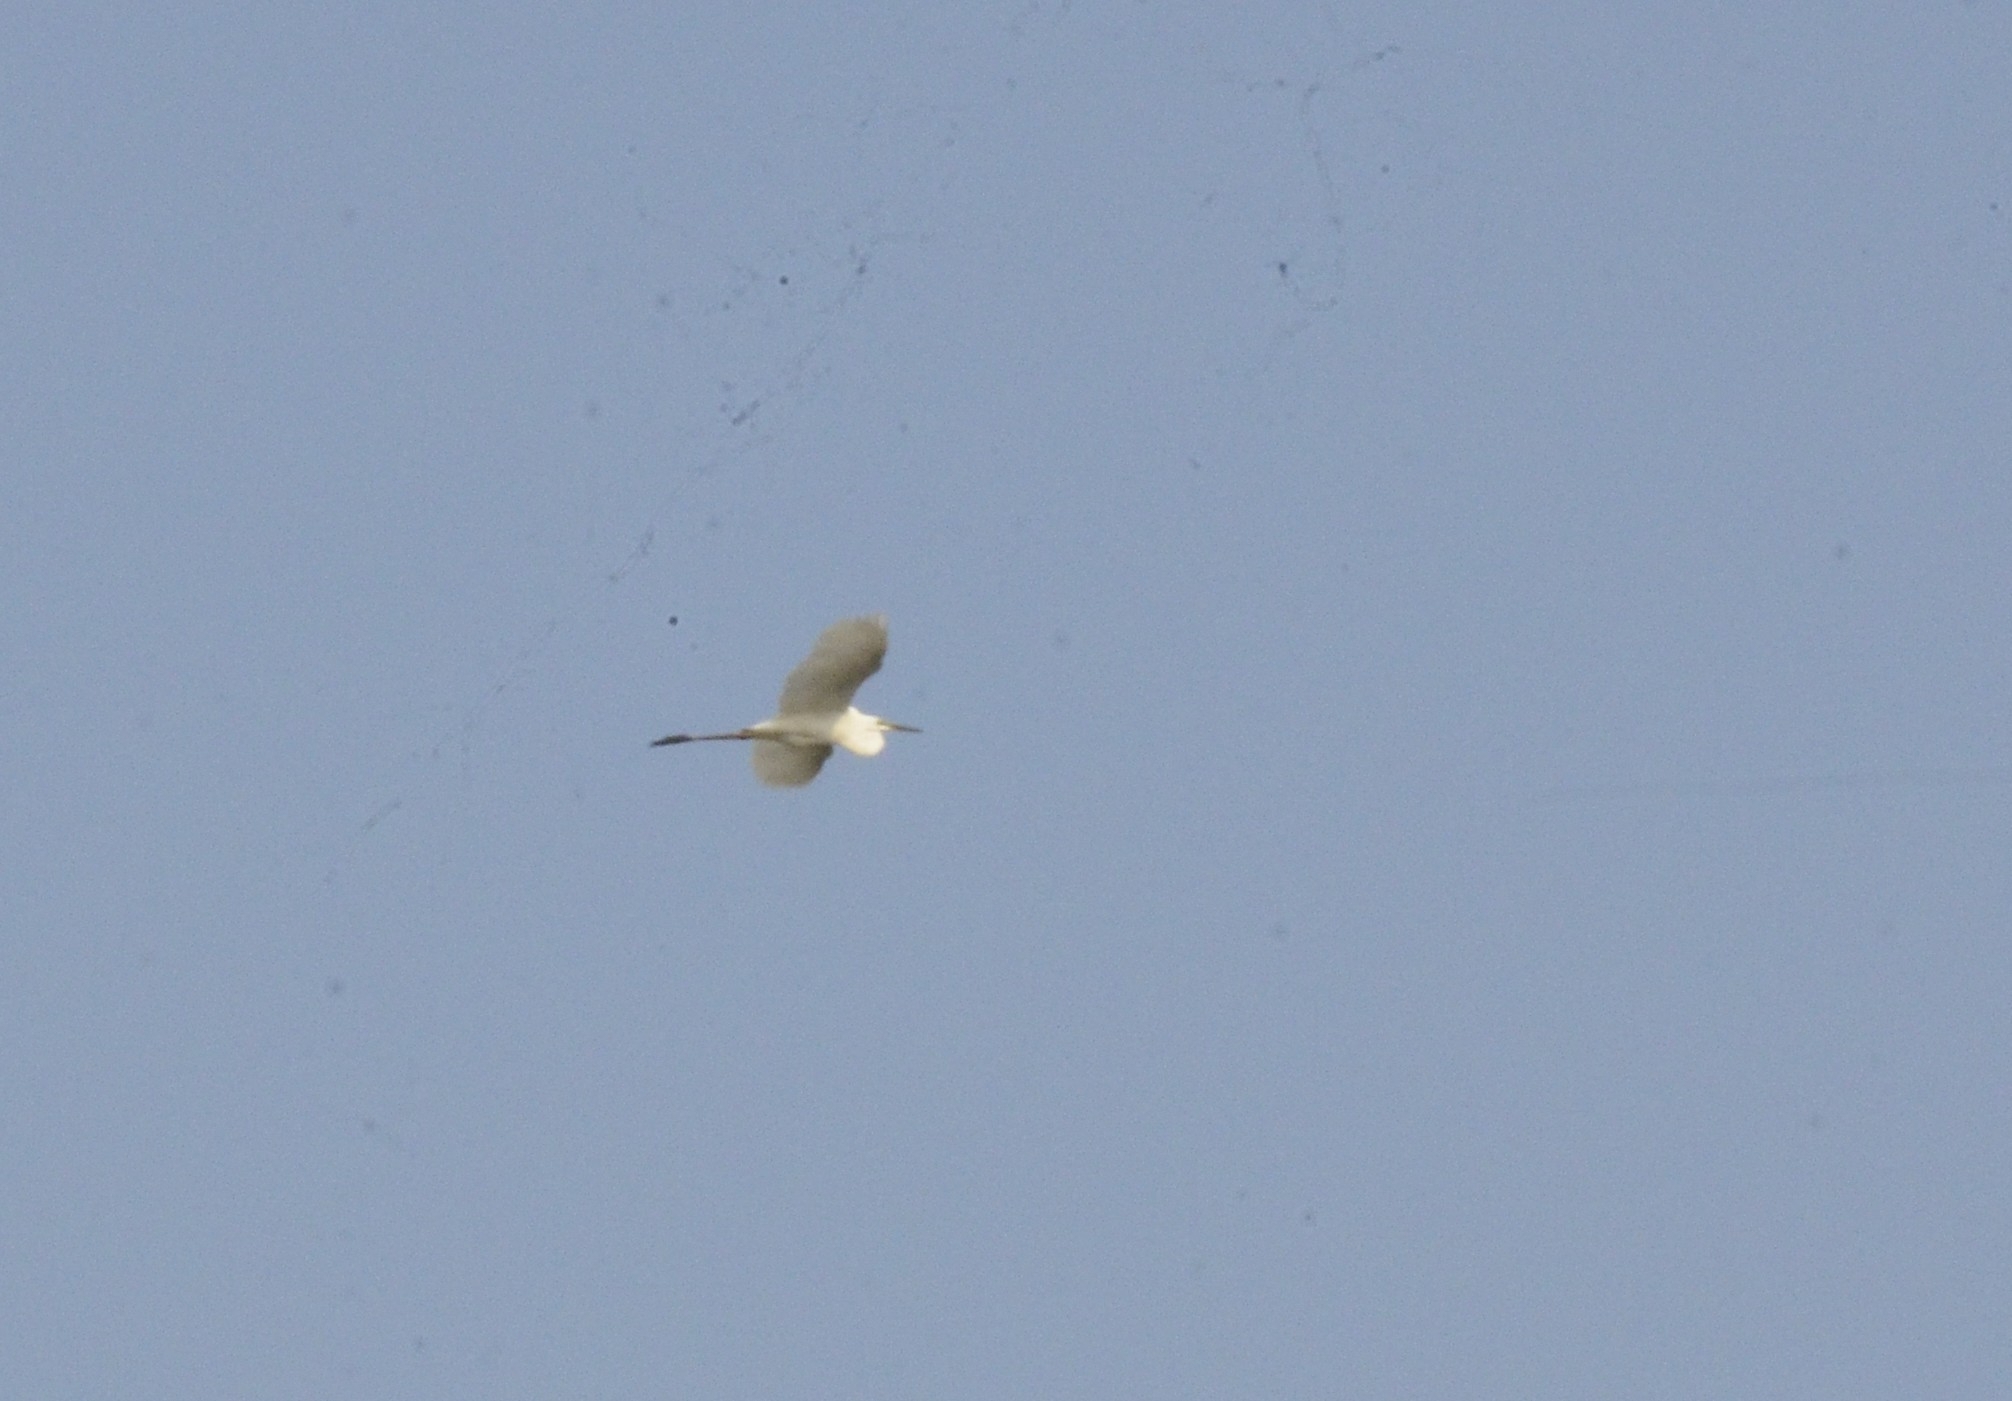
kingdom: Animalia
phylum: Chordata
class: Aves
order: Pelecaniformes
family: Ardeidae
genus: Egretta
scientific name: Egretta garzetta
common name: Little egret
